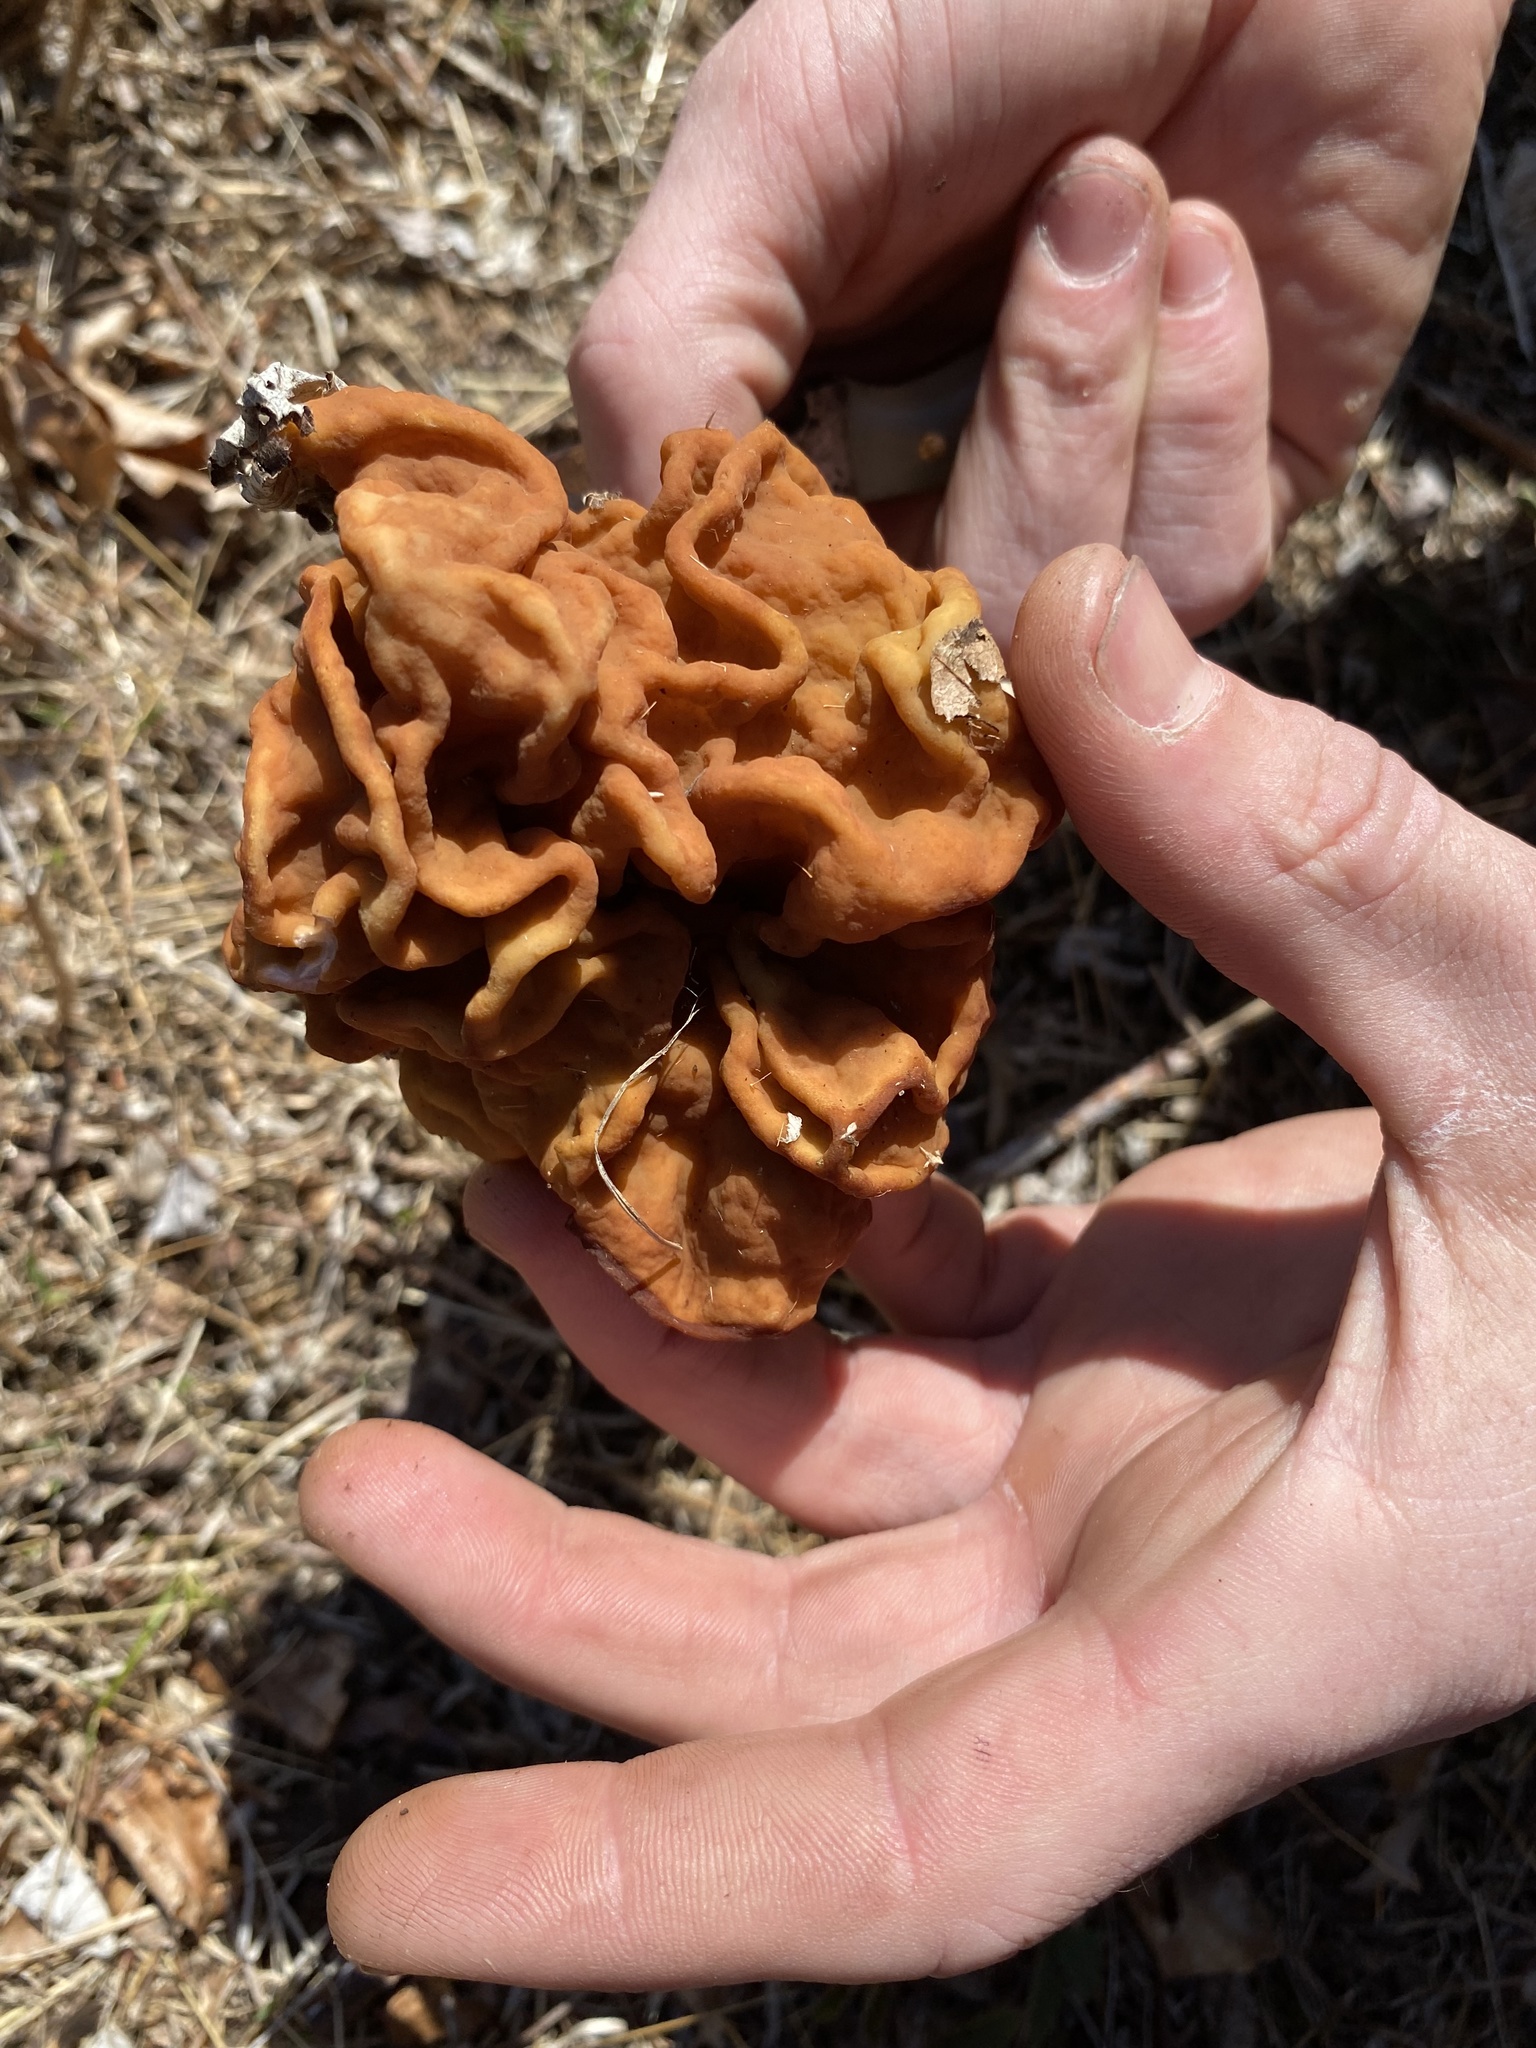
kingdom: Fungi
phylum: Ascomycota
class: Pezizomycetes
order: Pezizales
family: Discinaceae
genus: Gyromitra
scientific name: Gyromitra korfii
